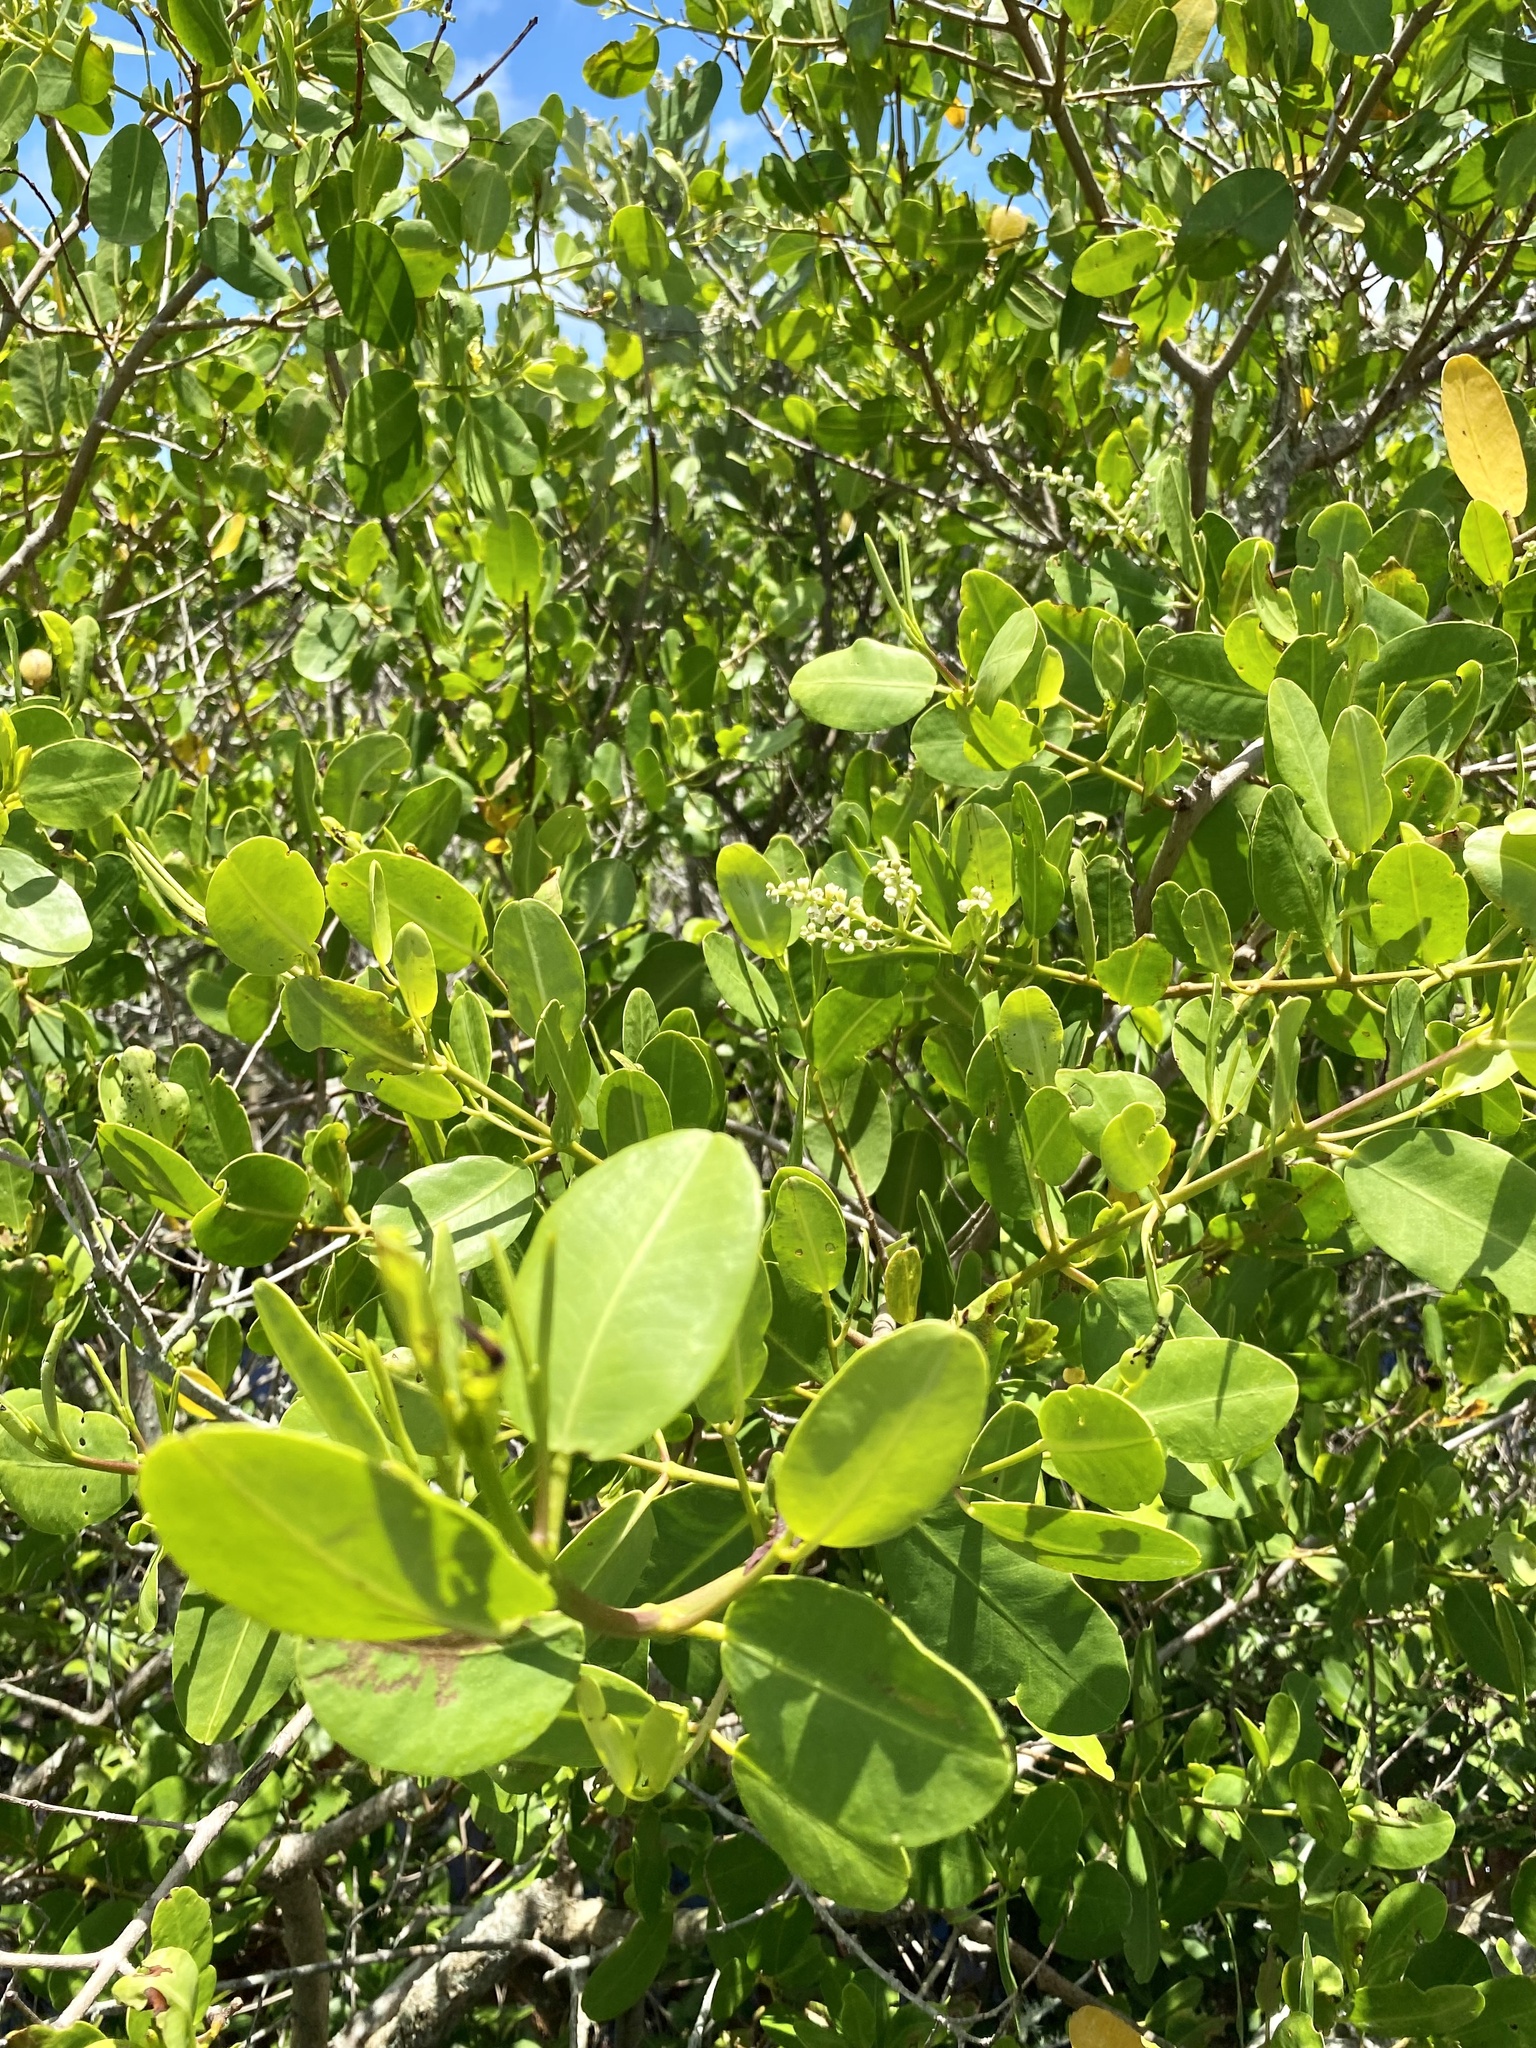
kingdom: Plantae
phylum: Tracheophyta
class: Magnoliopsida
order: Myrtales
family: Combretaceae
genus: Laguncularia
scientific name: Laguncularia racemosa
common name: White mangrove
